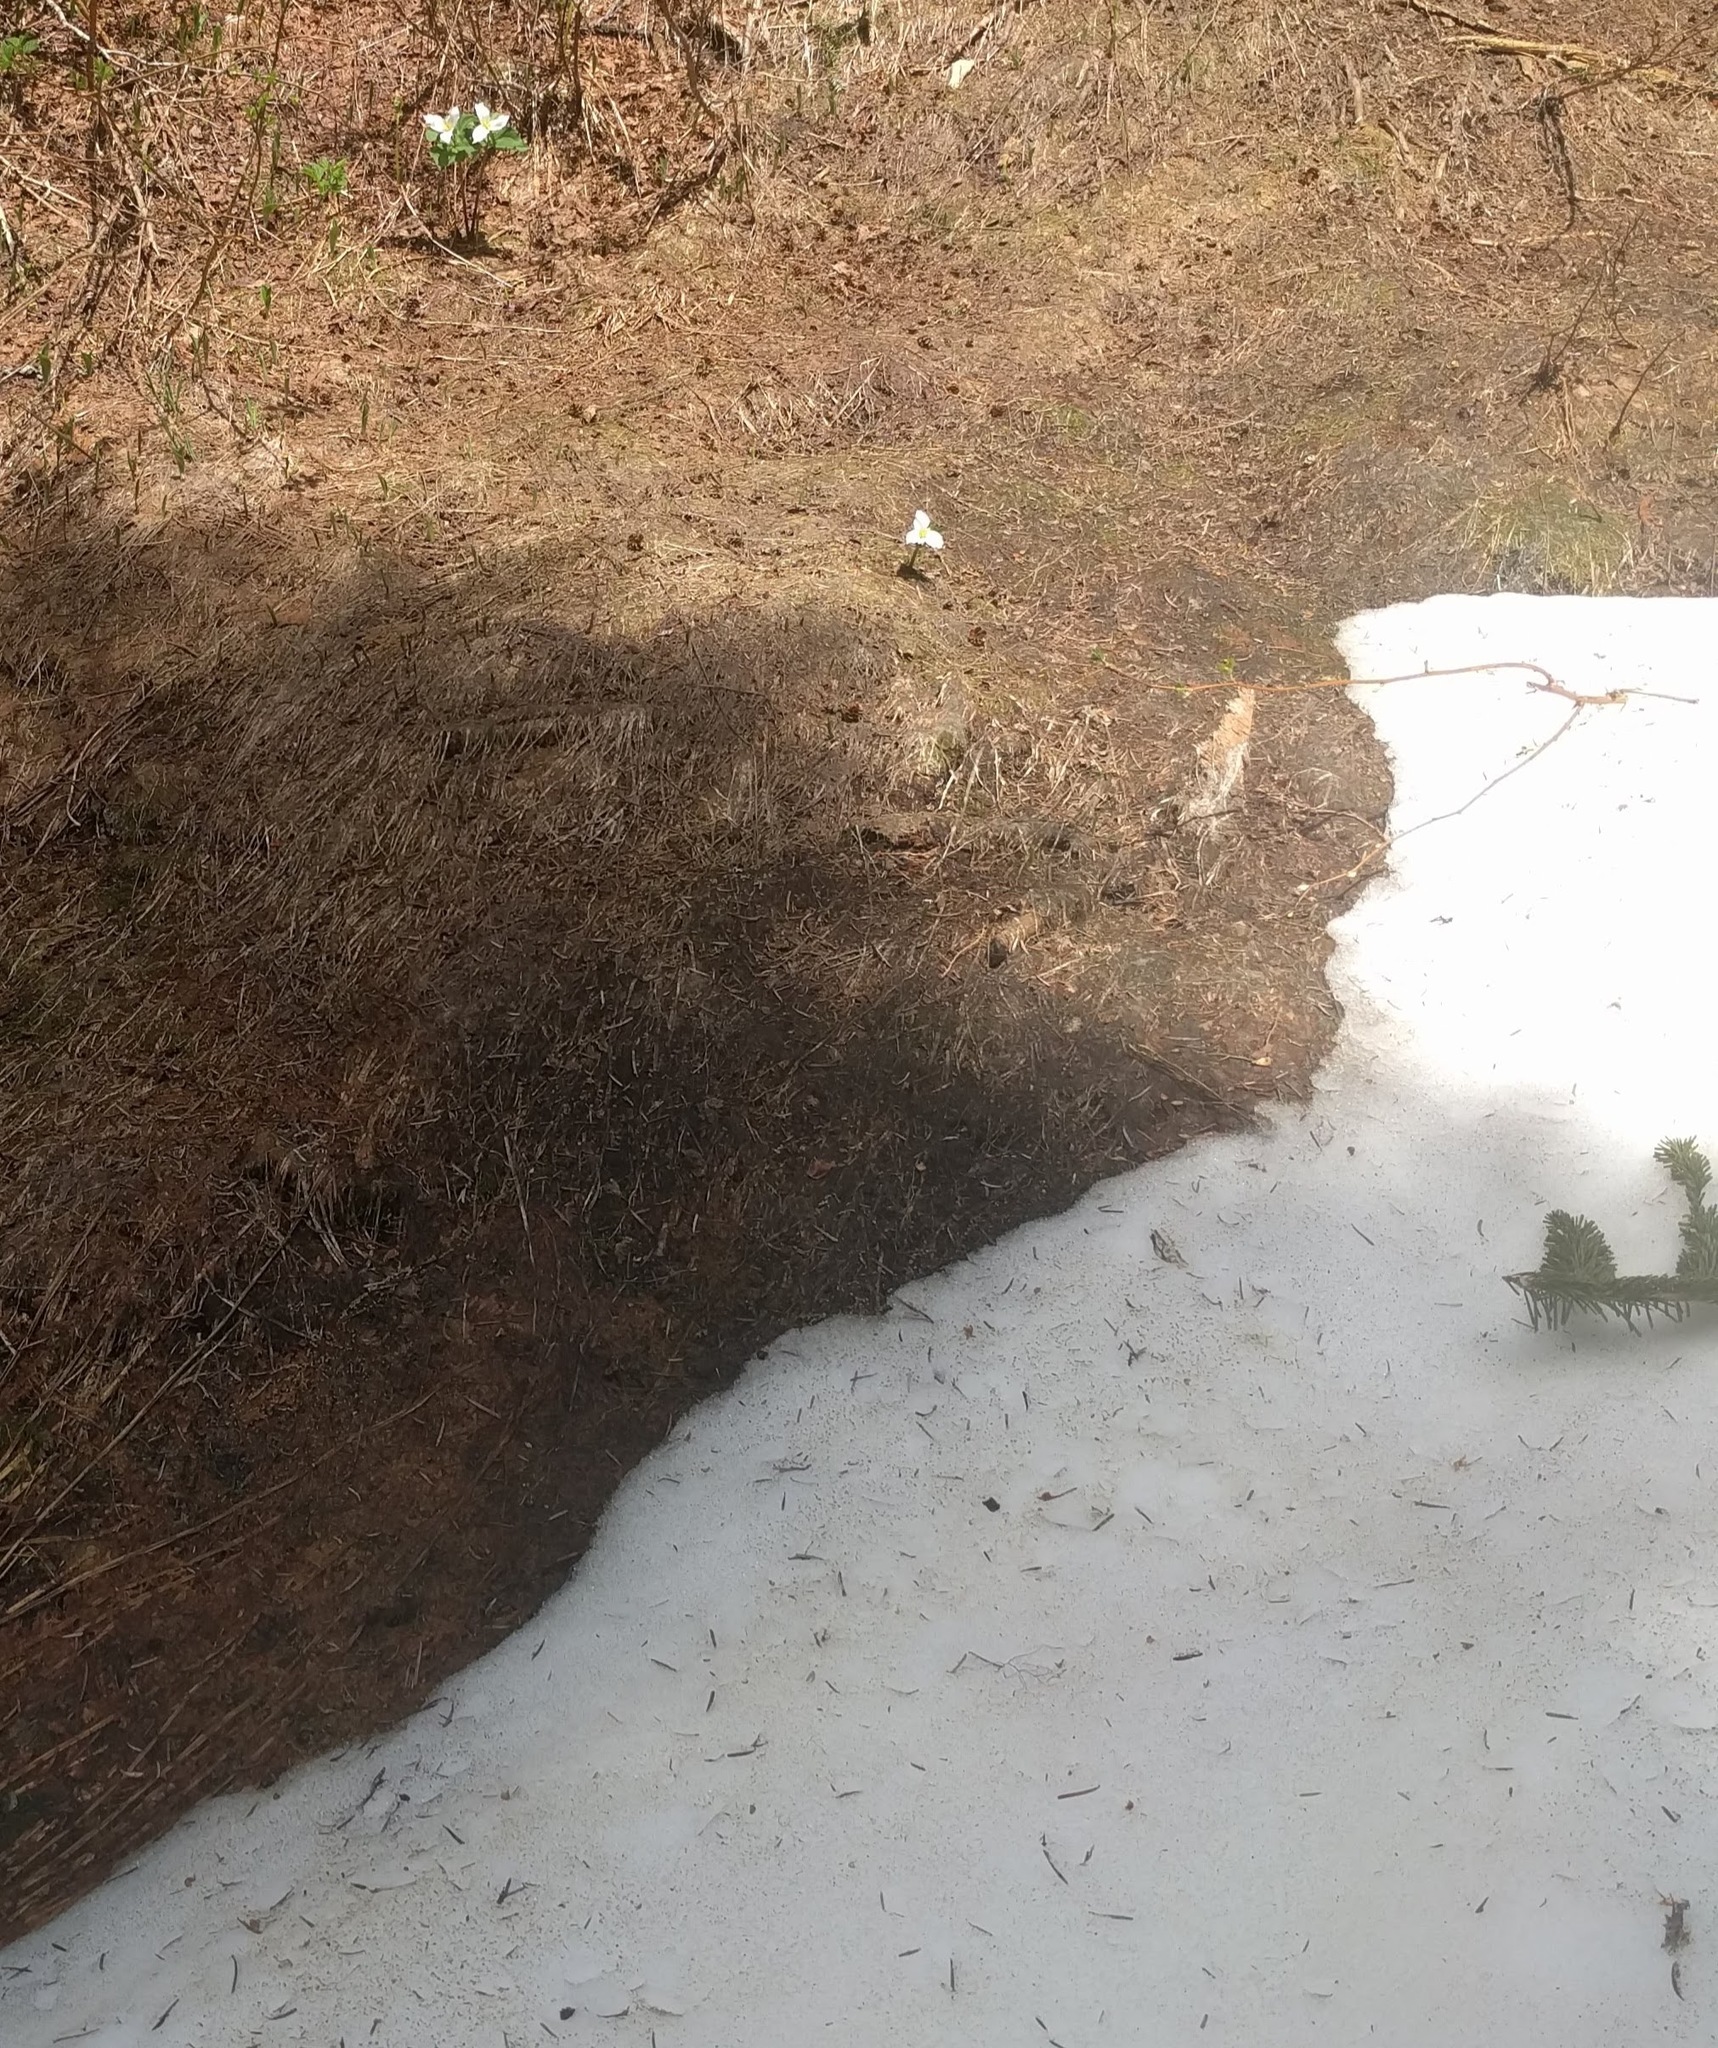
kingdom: Plantae
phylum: Tracheophyta
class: Liliopsida
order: Liliales
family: Melanthiaceae
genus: Trillium
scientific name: Trillium ovatum
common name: Pacific trillium
